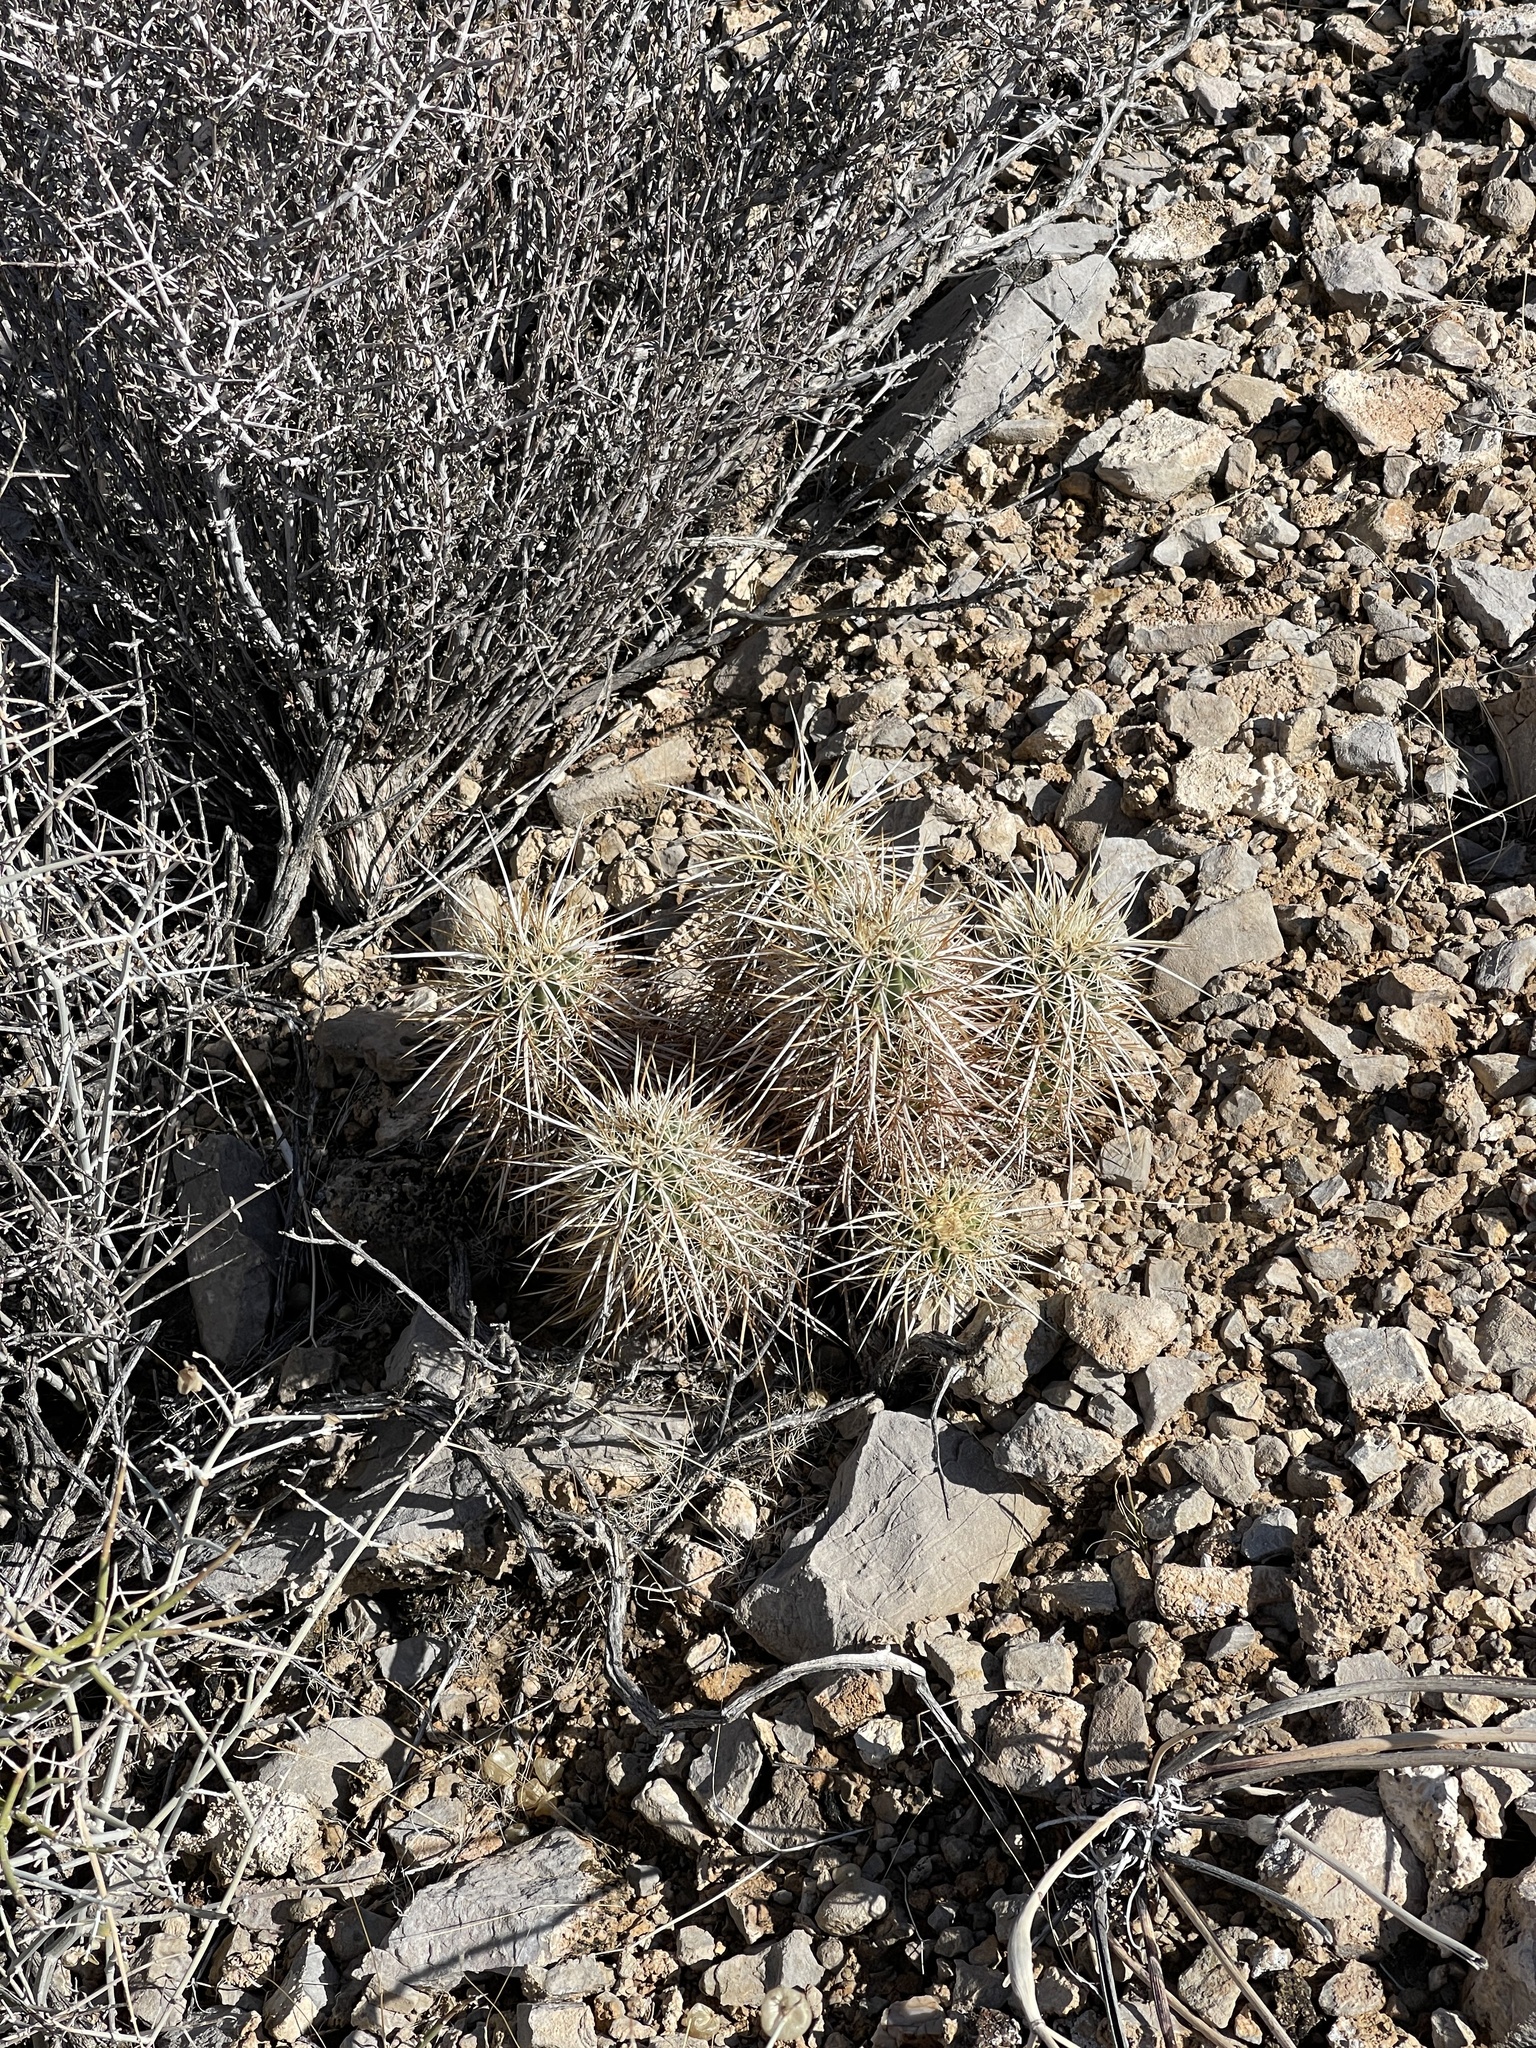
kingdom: Plantae
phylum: Tracheophyta
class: Magnoliopsida
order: Caryophyllales
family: Cactaceae
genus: Echinocereus
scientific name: Echinocereus engelmannii
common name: Engelmann's hedgehog cactus
